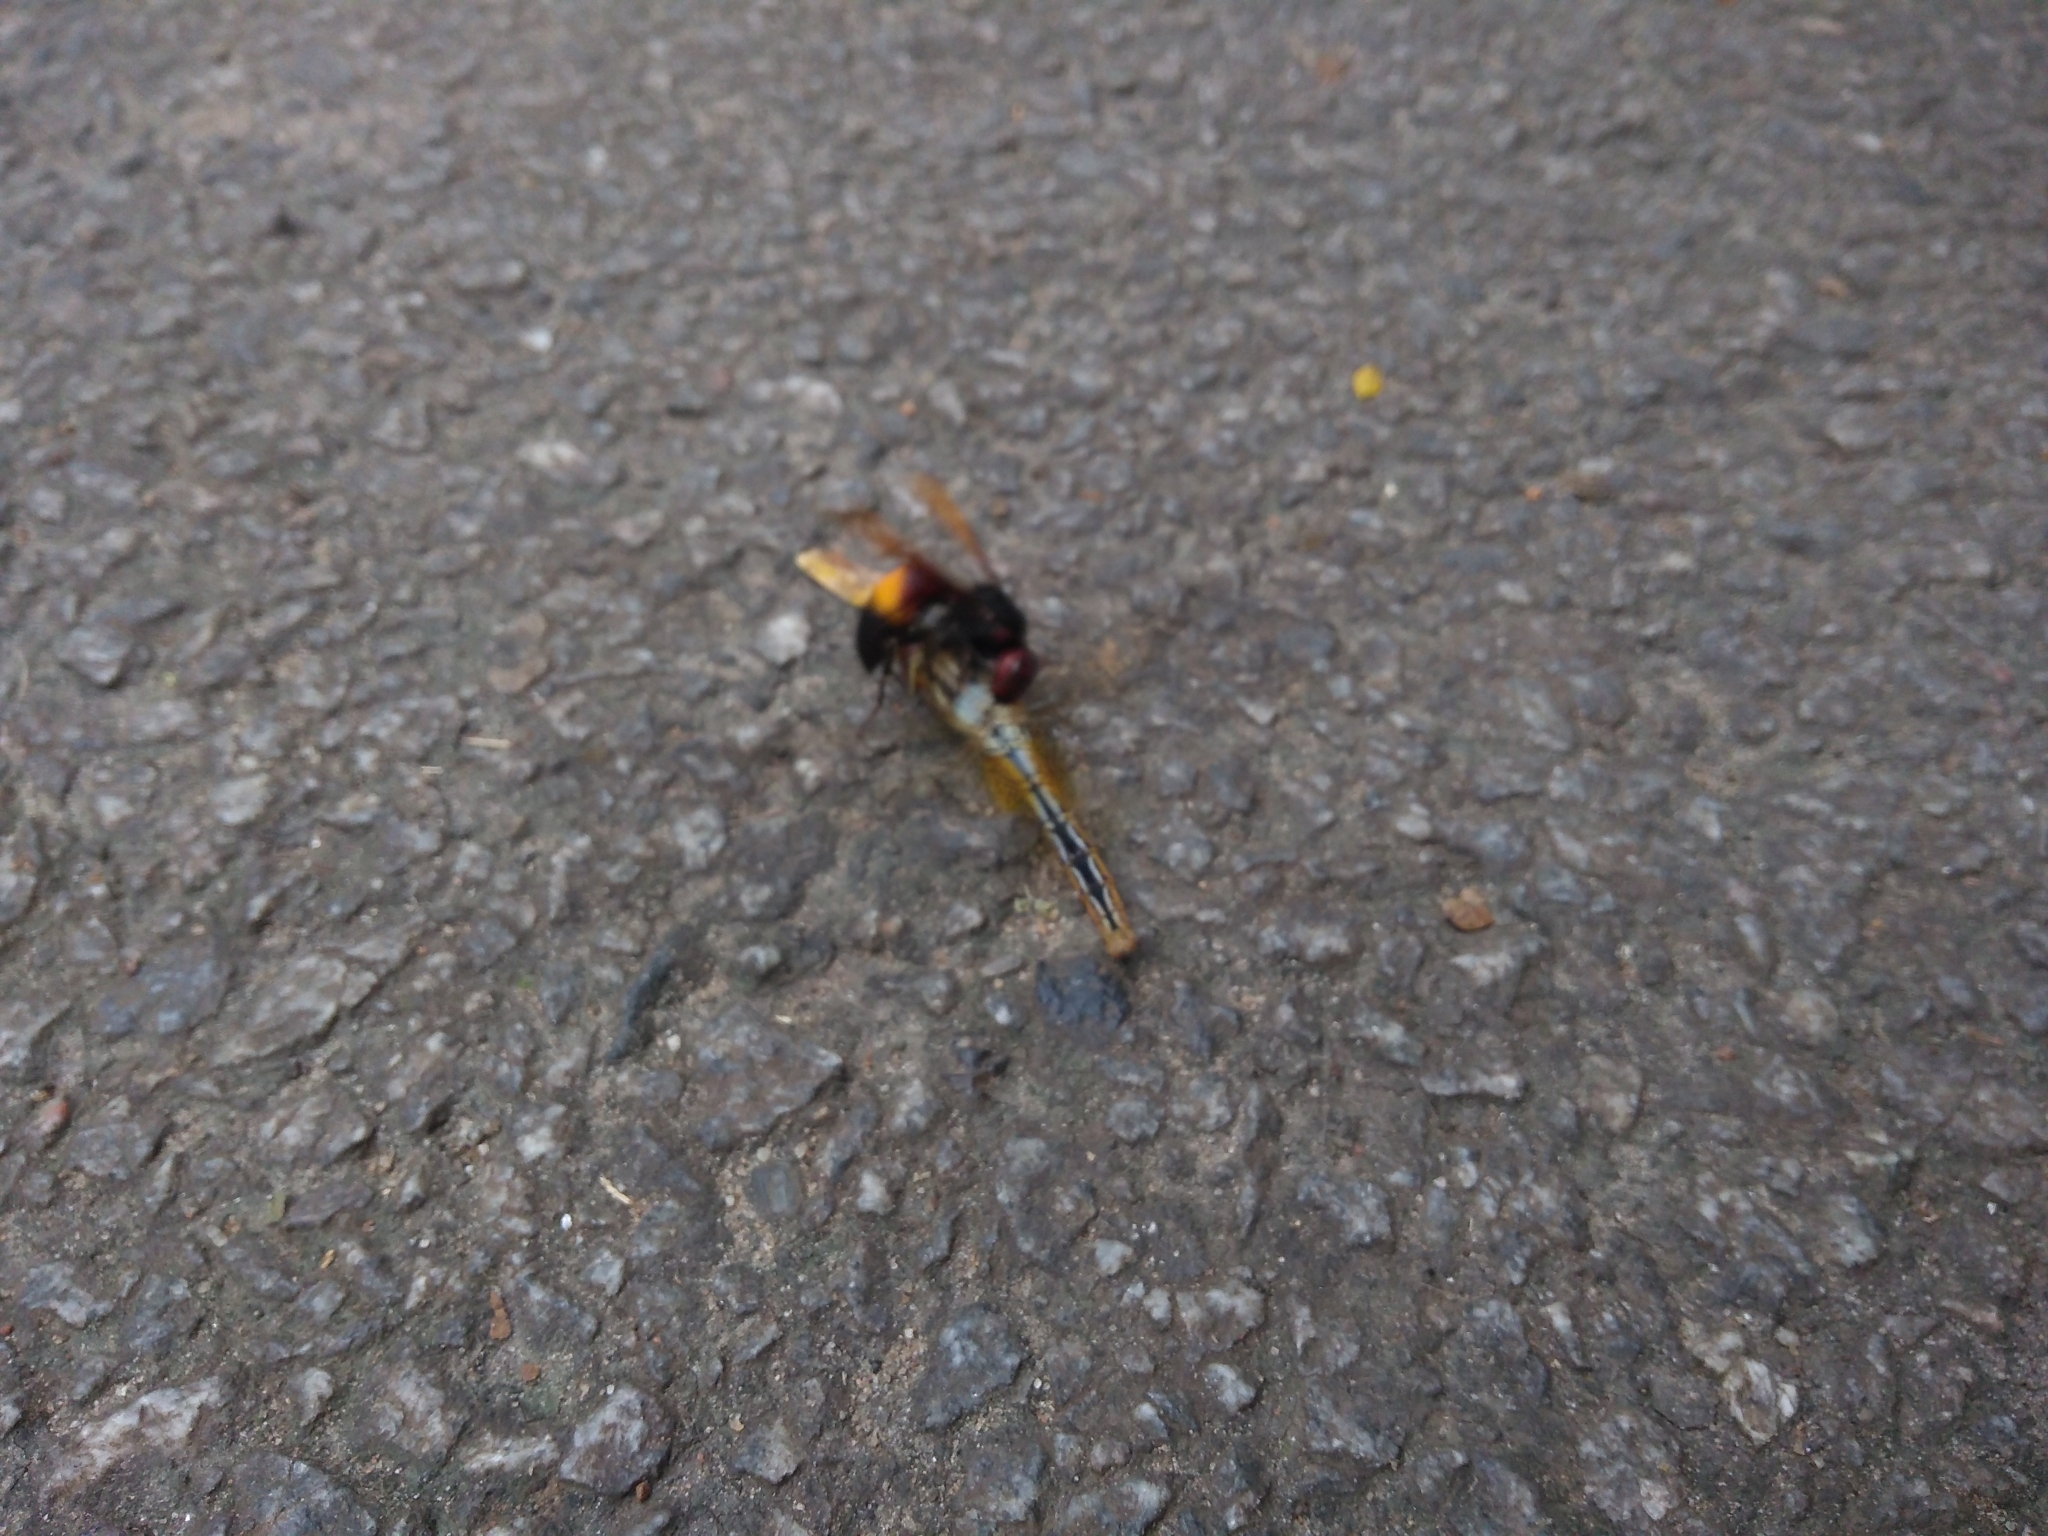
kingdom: Animalia
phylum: Arthropoda
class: Insecta
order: Hymenoptera
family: Vespidae
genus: Vespa
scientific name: Vespa affinis
